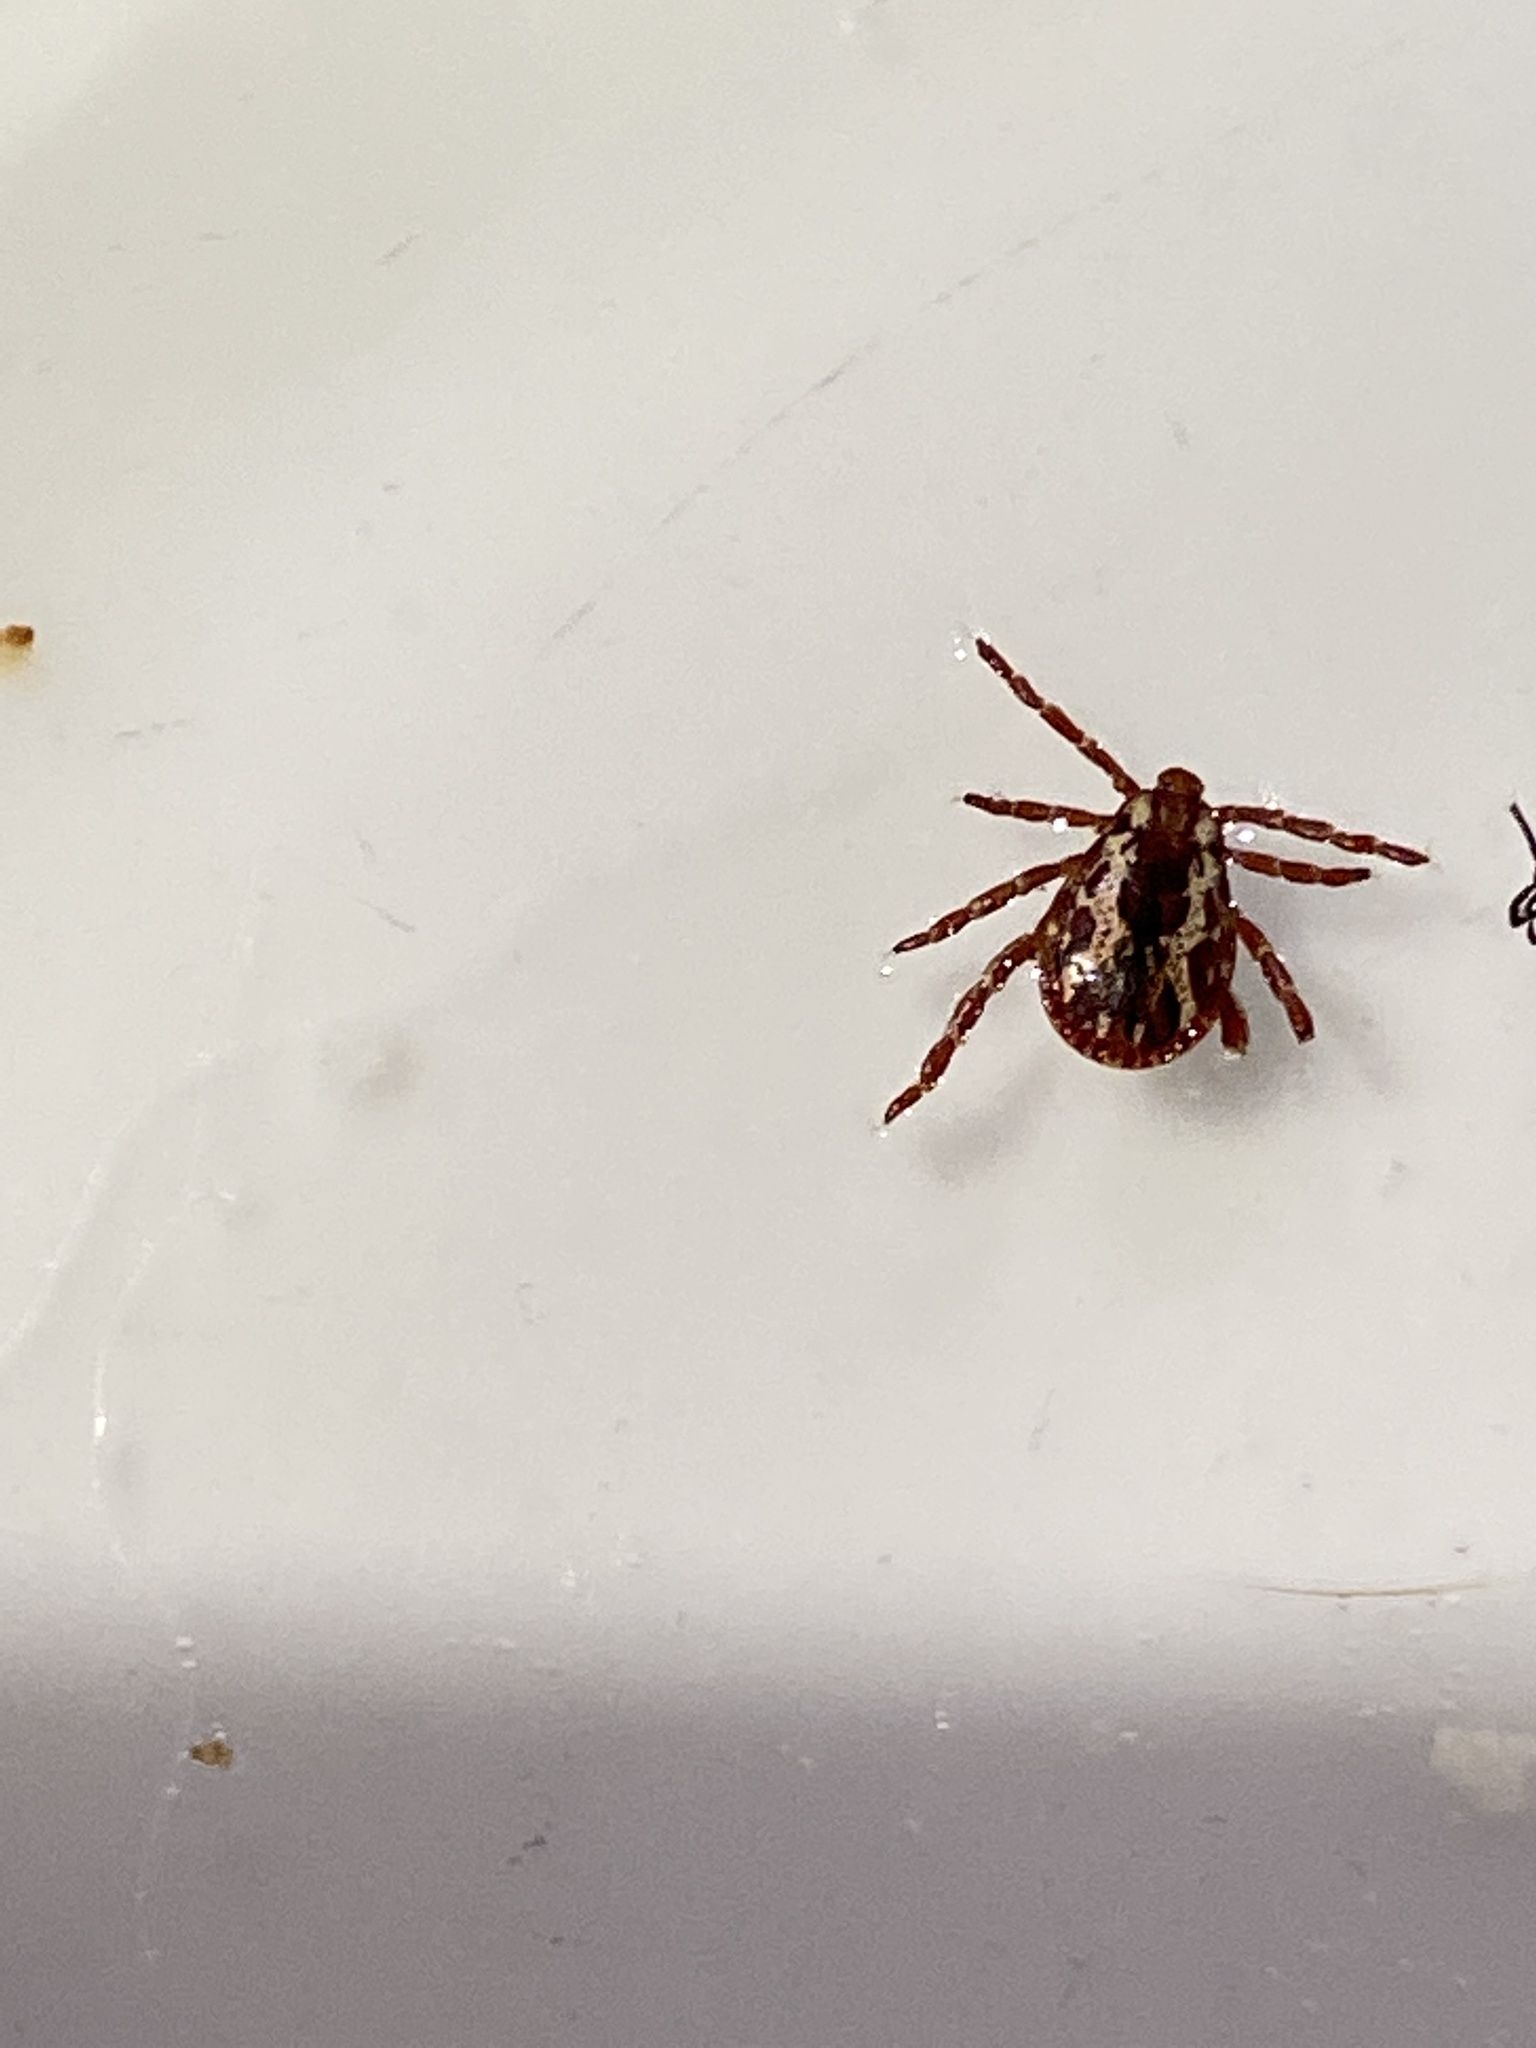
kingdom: Animalia
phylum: Arthropoda
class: Arachnida
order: Ixodida
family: Ixodidae
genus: Dermacentor
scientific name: Dermacentor similis
